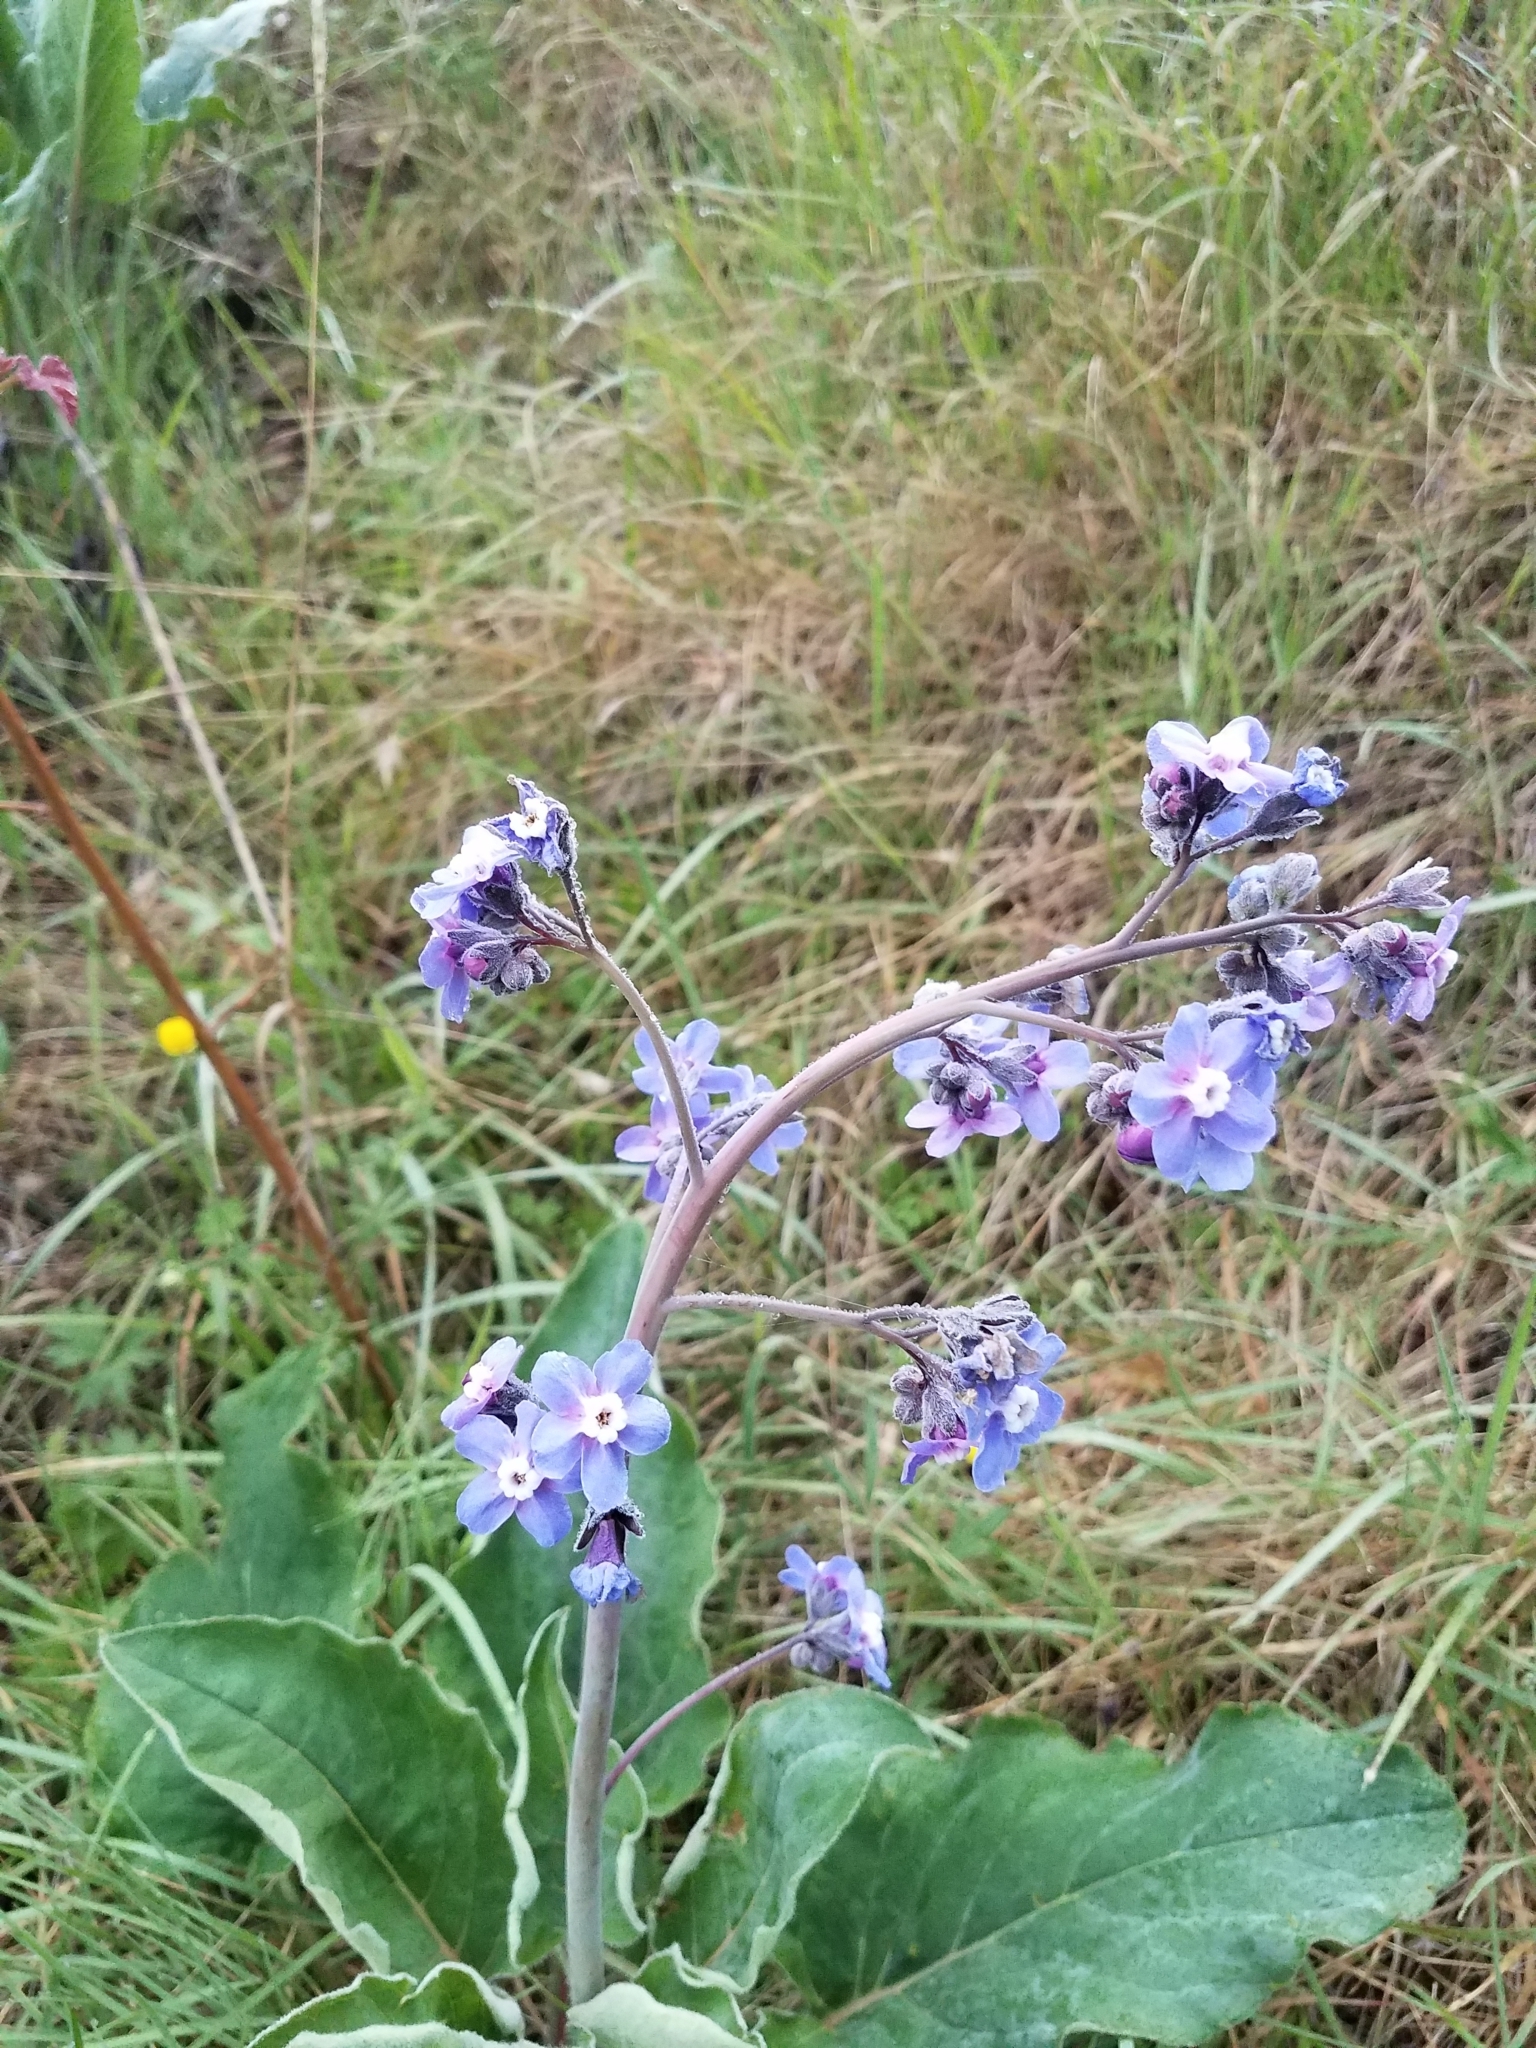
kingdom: Plantae
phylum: Tracheophyta
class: Magnoliopsida
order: Boraginales
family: Boraginaceae
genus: Adelinia
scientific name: Adelinia grande
